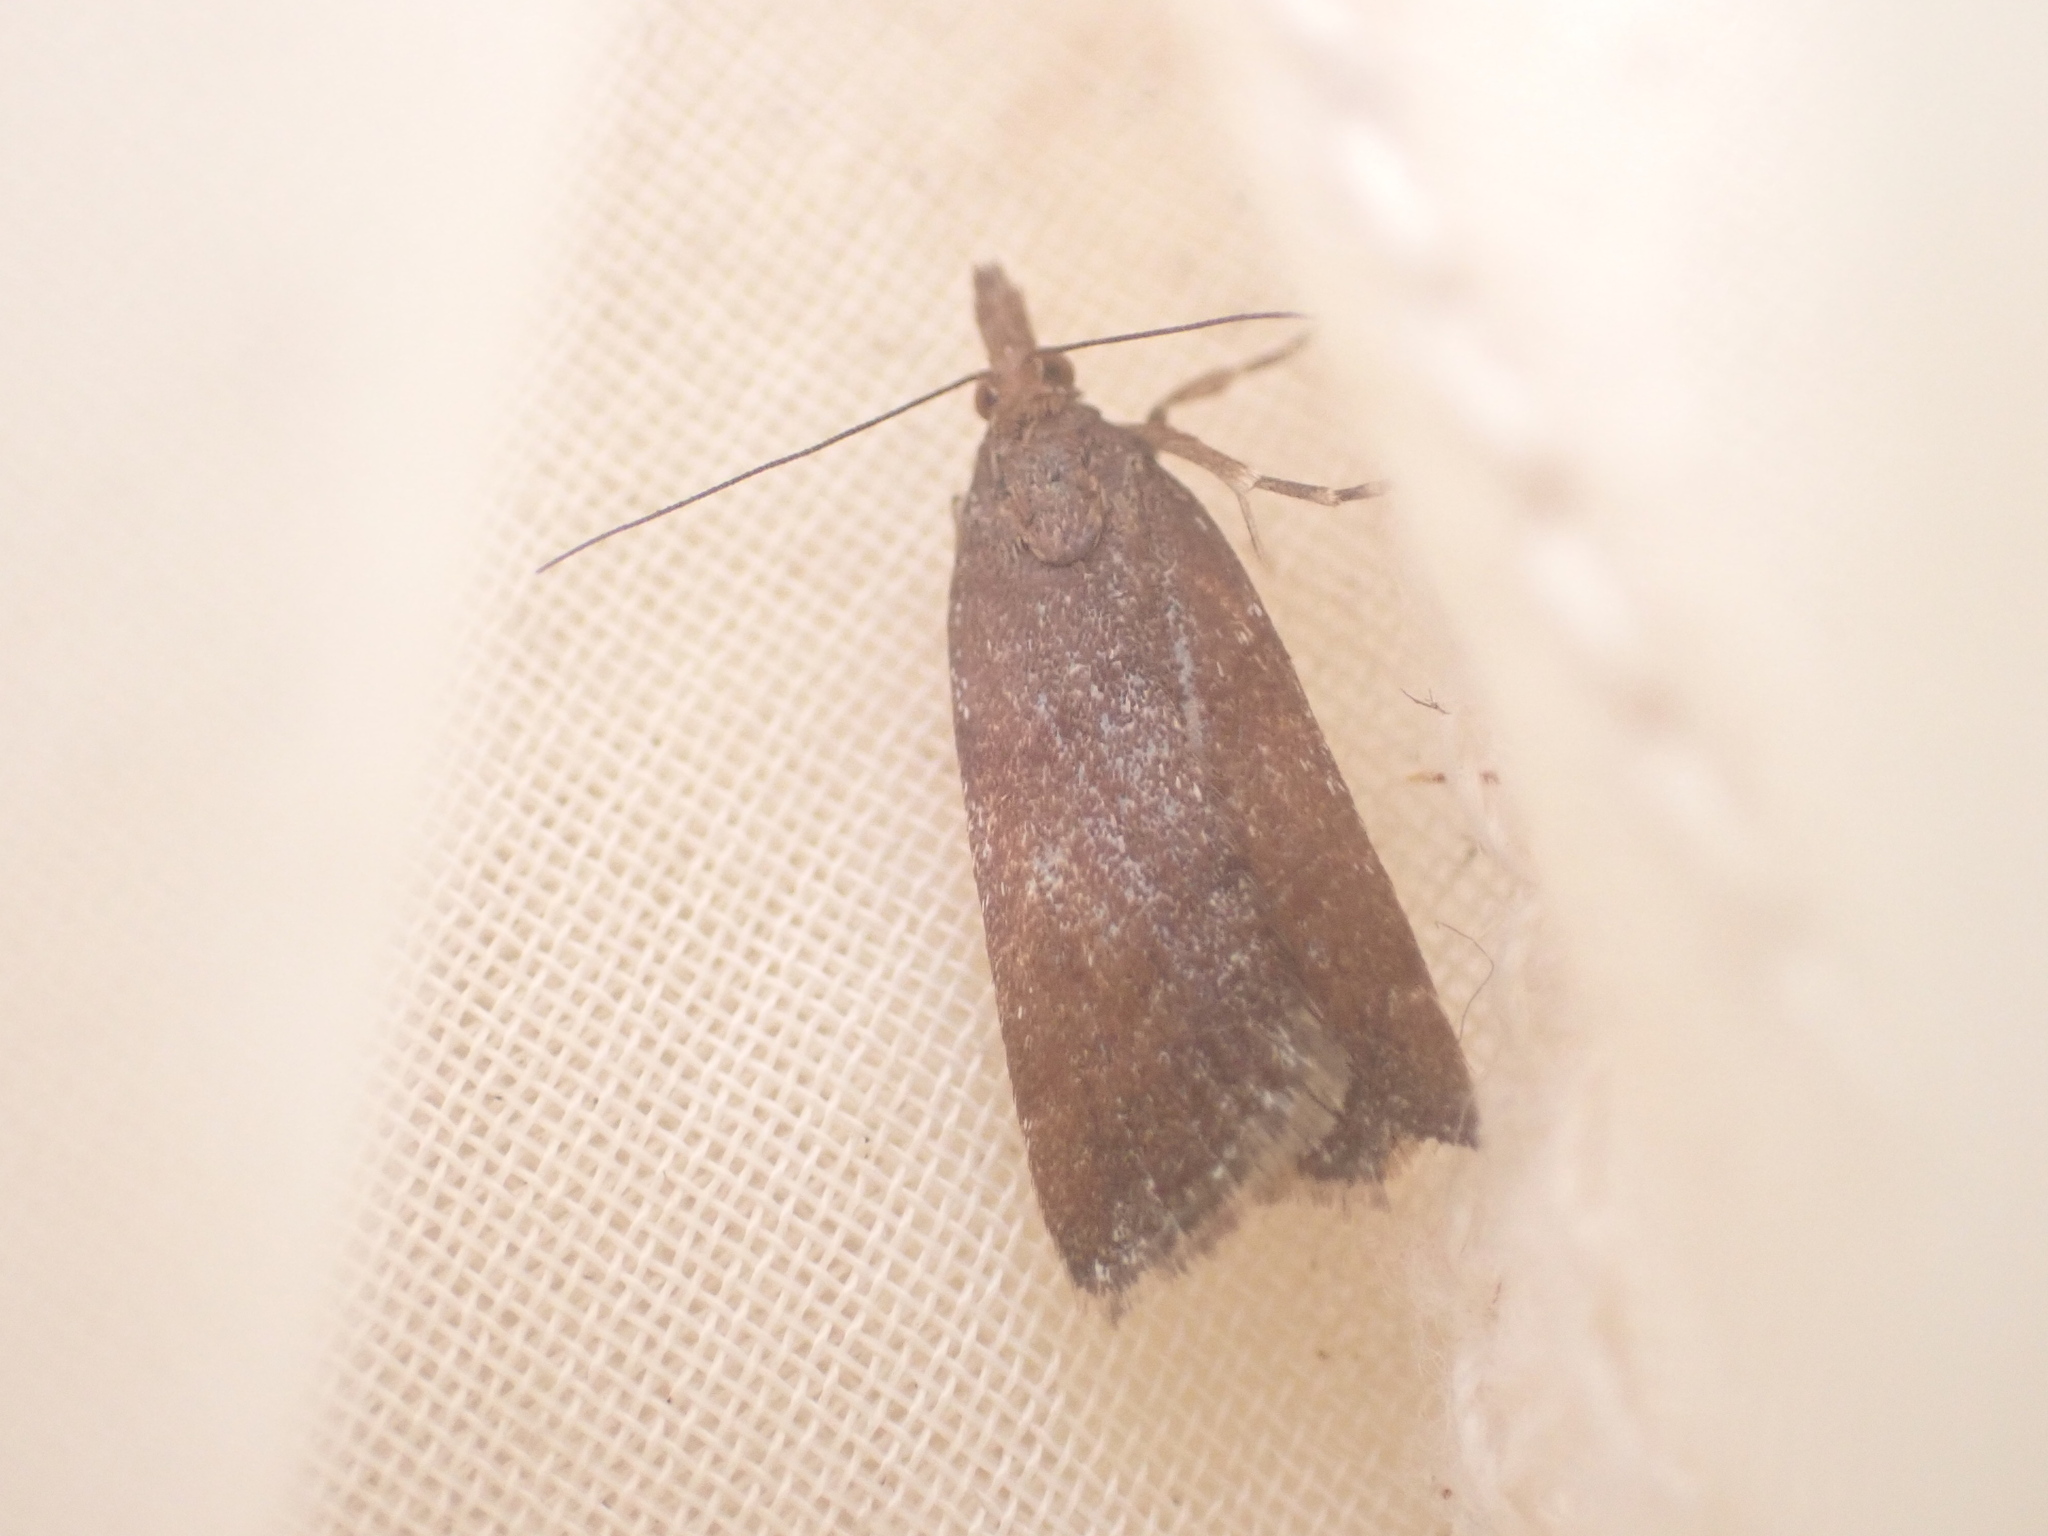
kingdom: Animalia
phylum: Arthropoda
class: Insecta
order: Lepidoptera
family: Crambidae
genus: Eudonia
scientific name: Eudonia feredayi
